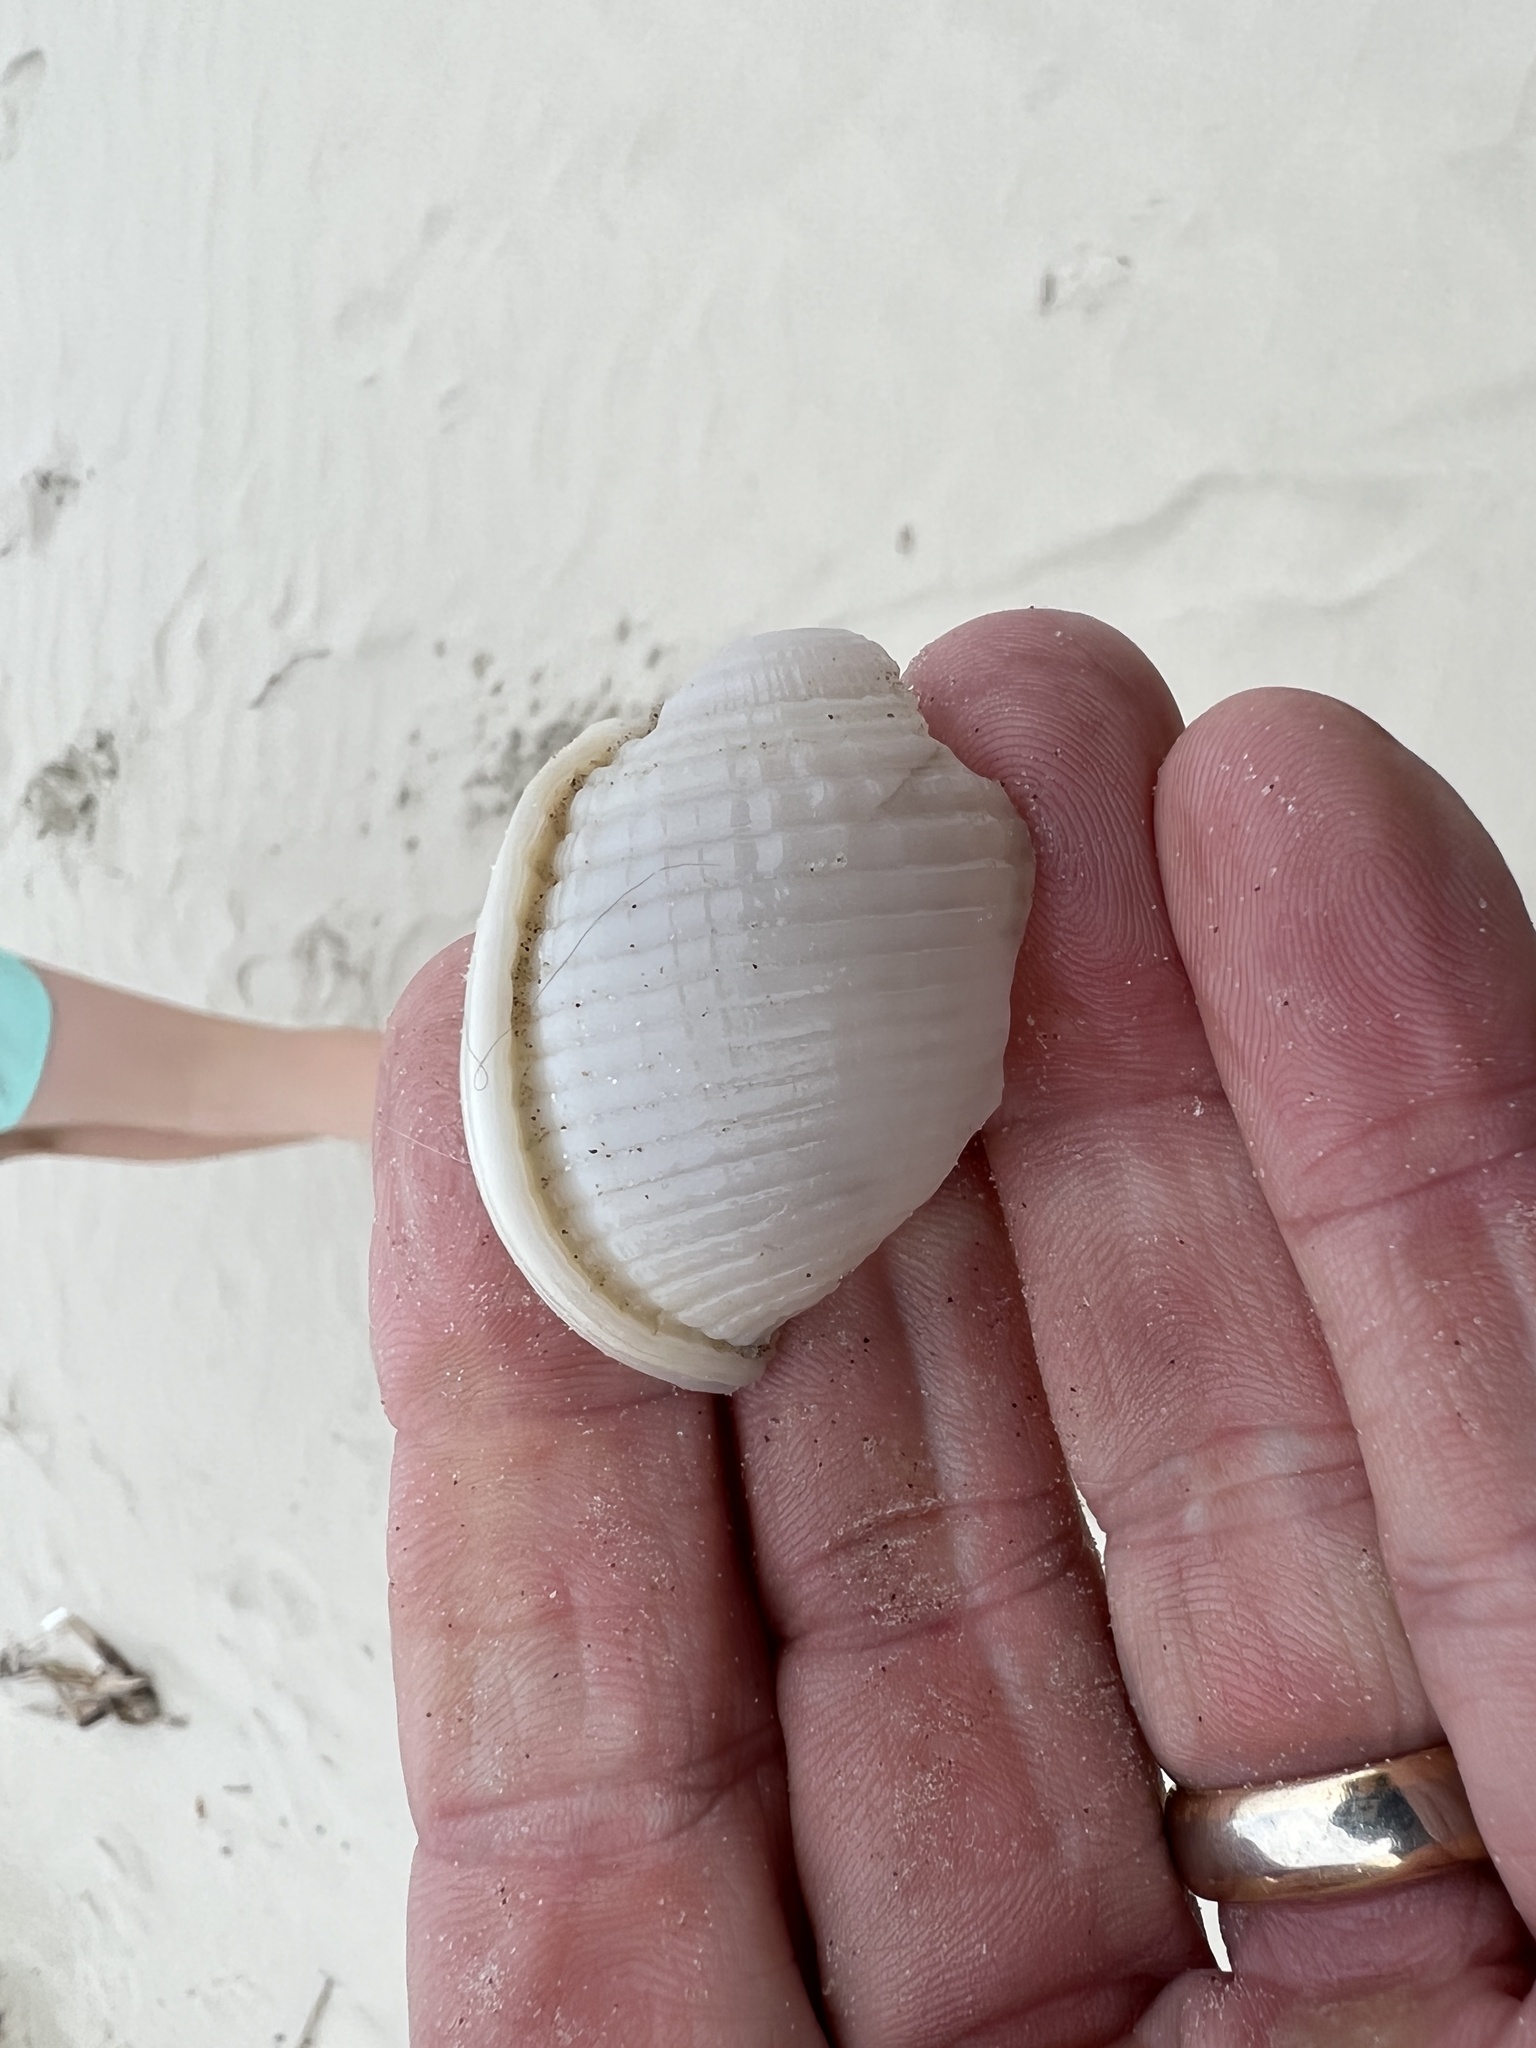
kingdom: Animalia
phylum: Mollusca
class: Gastropoda
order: Littorinimorpha
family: Cassidae
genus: Semicassis
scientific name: Semicassis granulata
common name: Scotch bonnet
